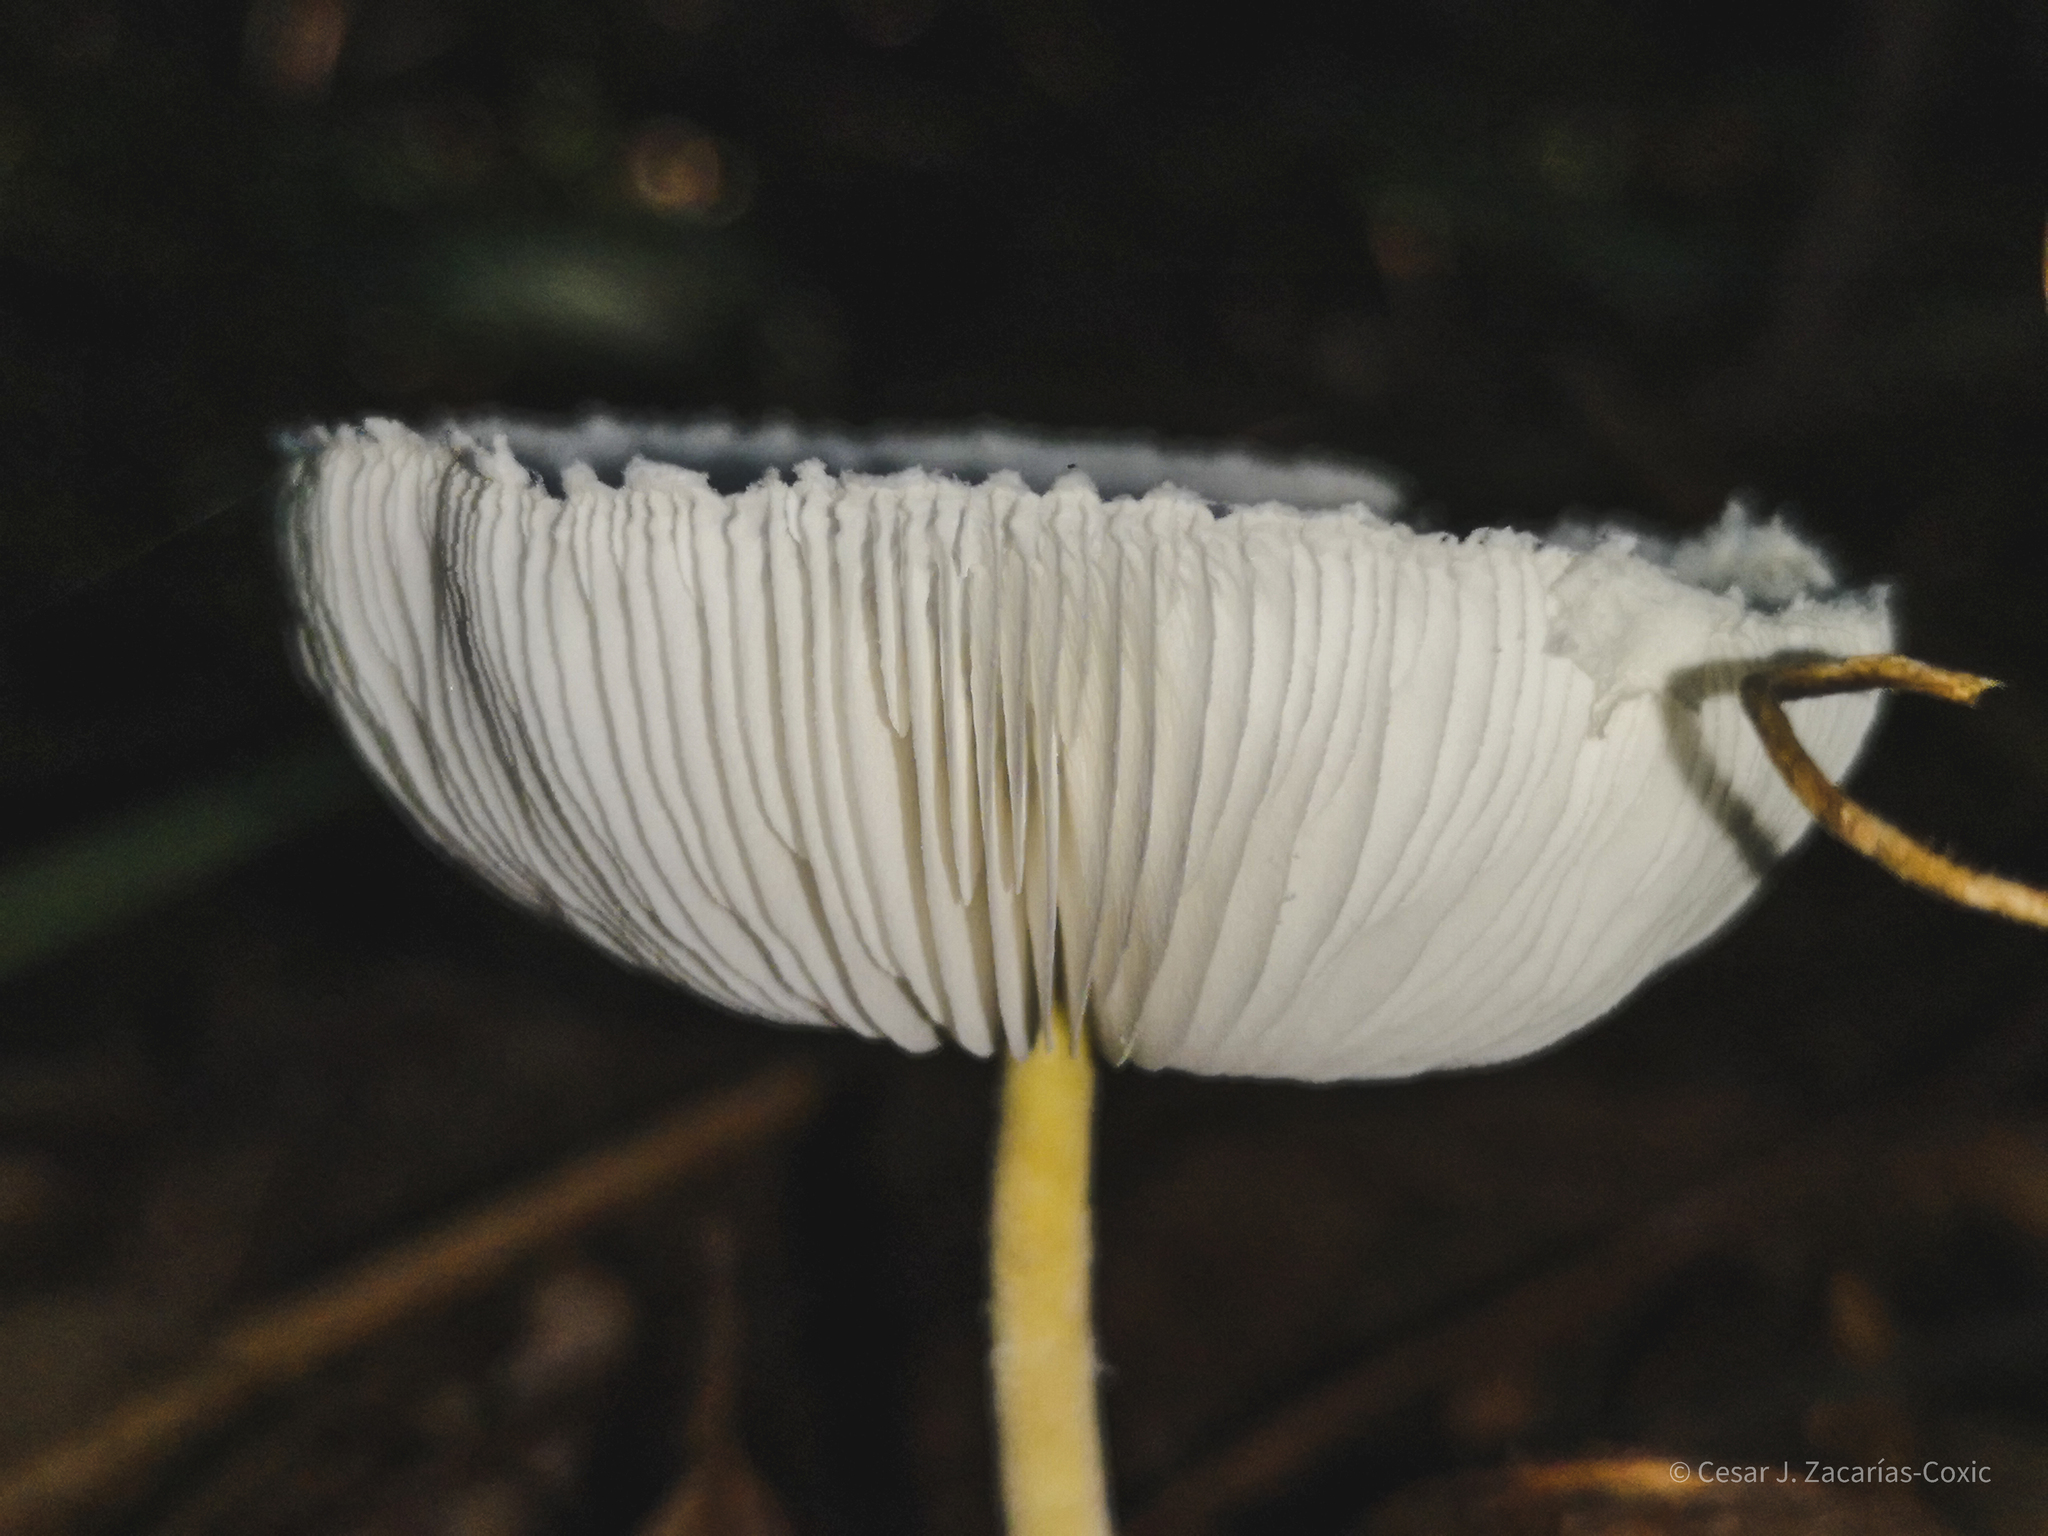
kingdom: Fungi
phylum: Basidiomycota
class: Agaricomycetes
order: Agaricales
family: Agaricaceae
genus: Leucocoprinus
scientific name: Leucocoprinus cretaceus
